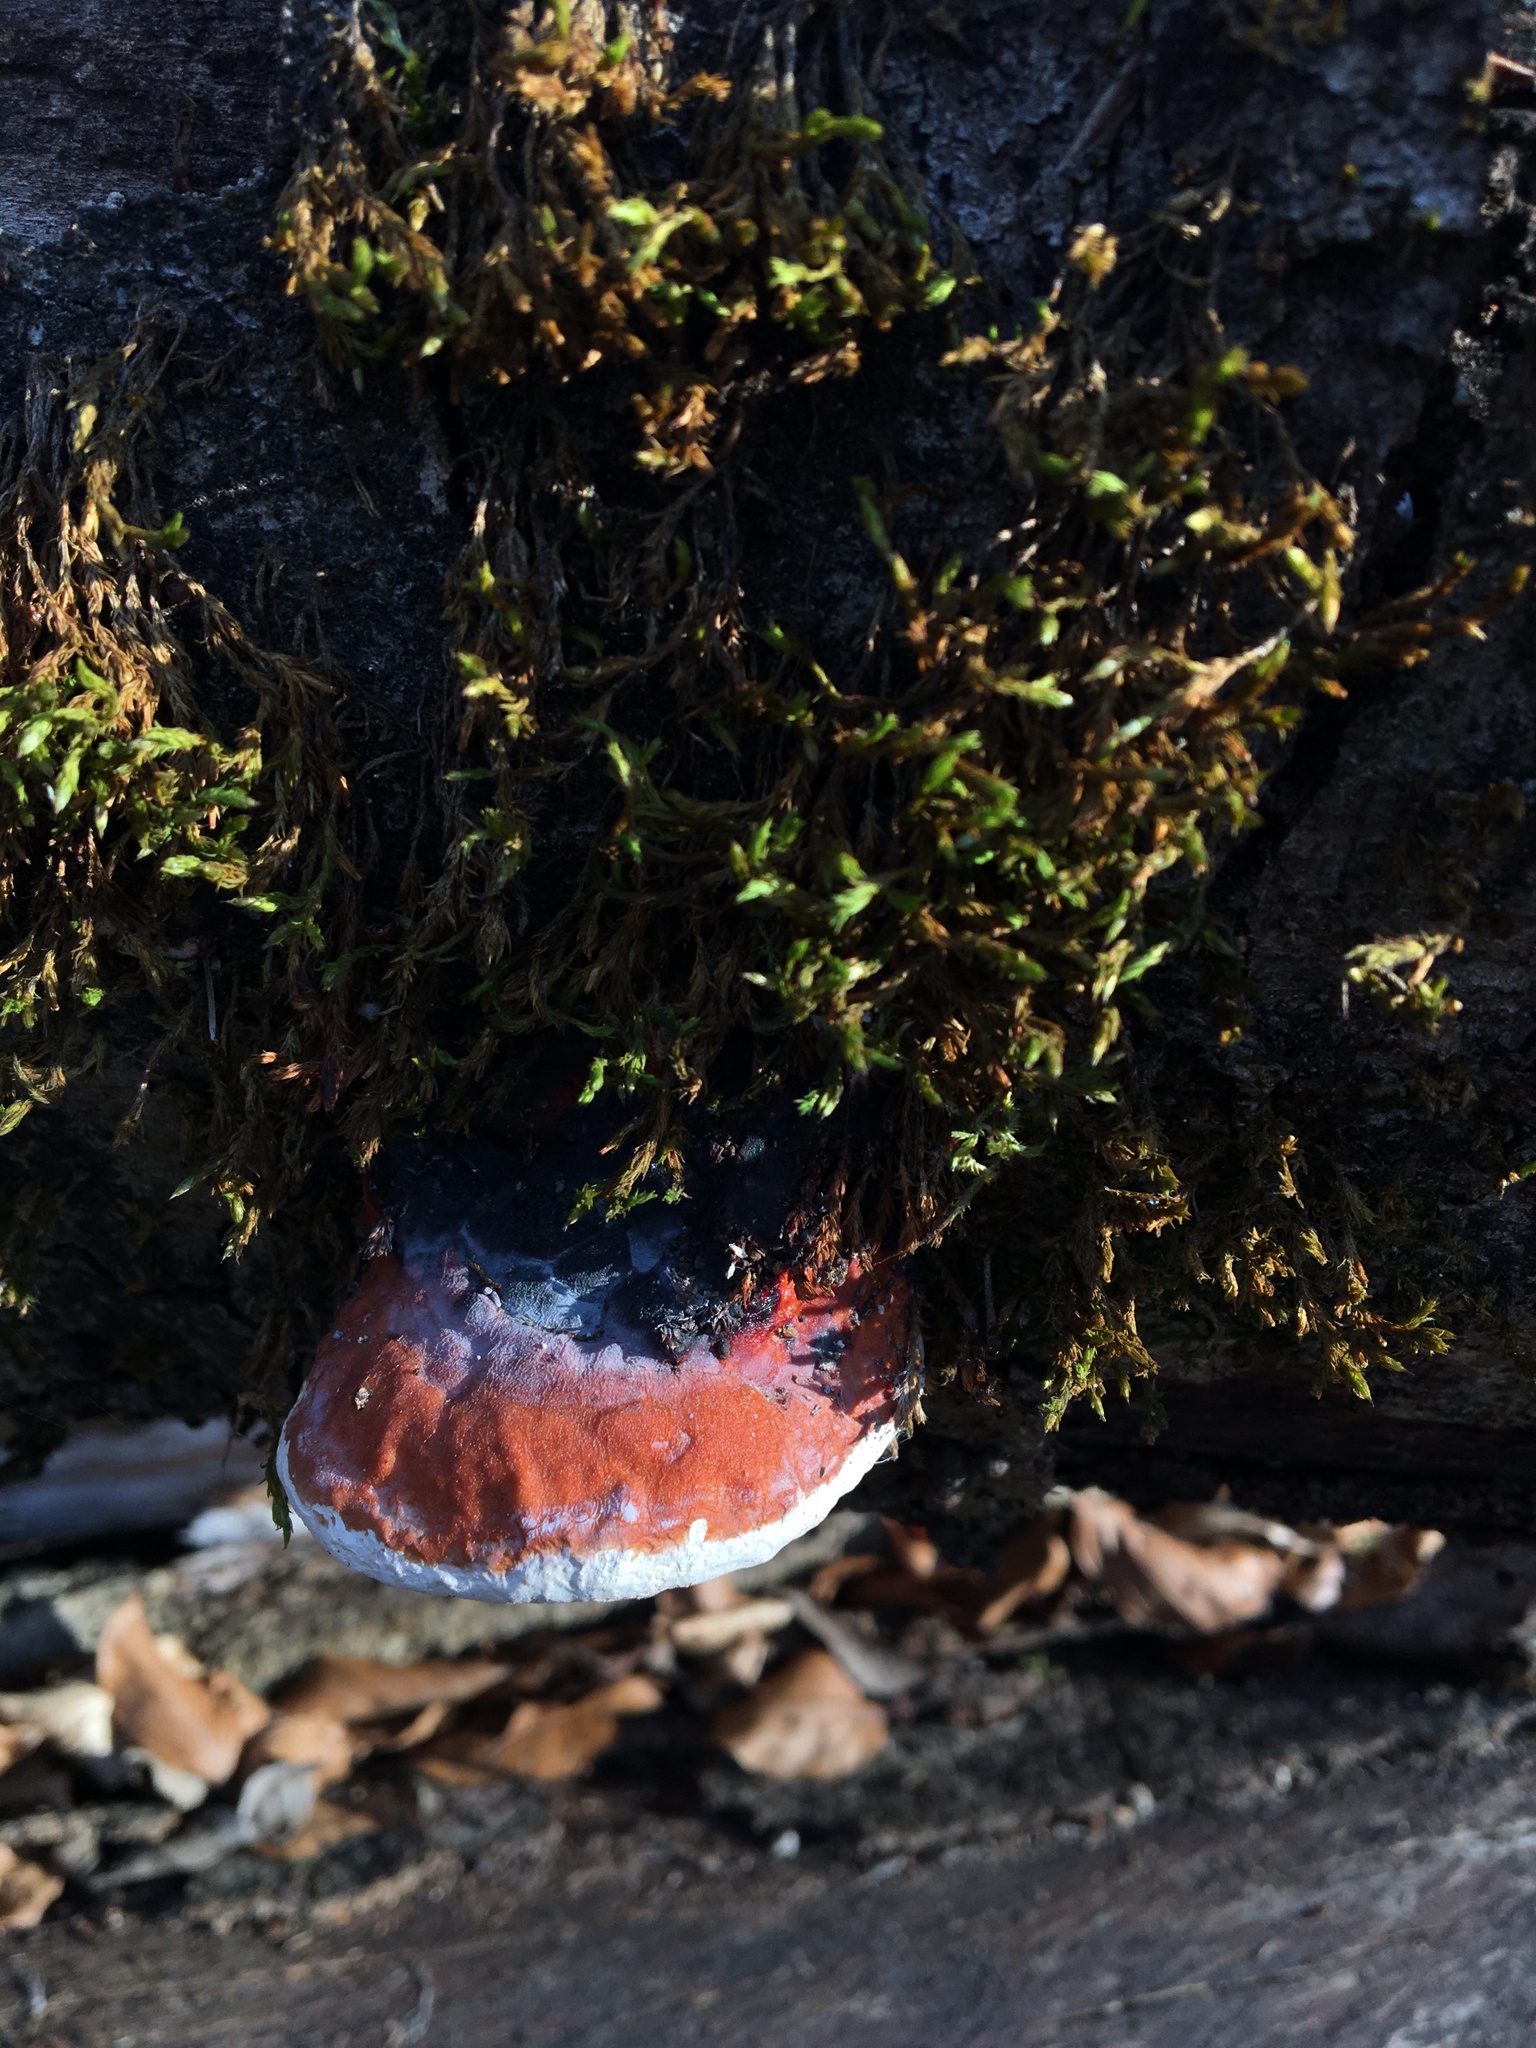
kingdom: Fungi
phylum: Basidiomycota
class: Agaricomycetes
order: Polyporales
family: Fomitopsidaceae
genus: Fomitopsis
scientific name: Fomitopsis pinicola
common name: Red-belted bracket
